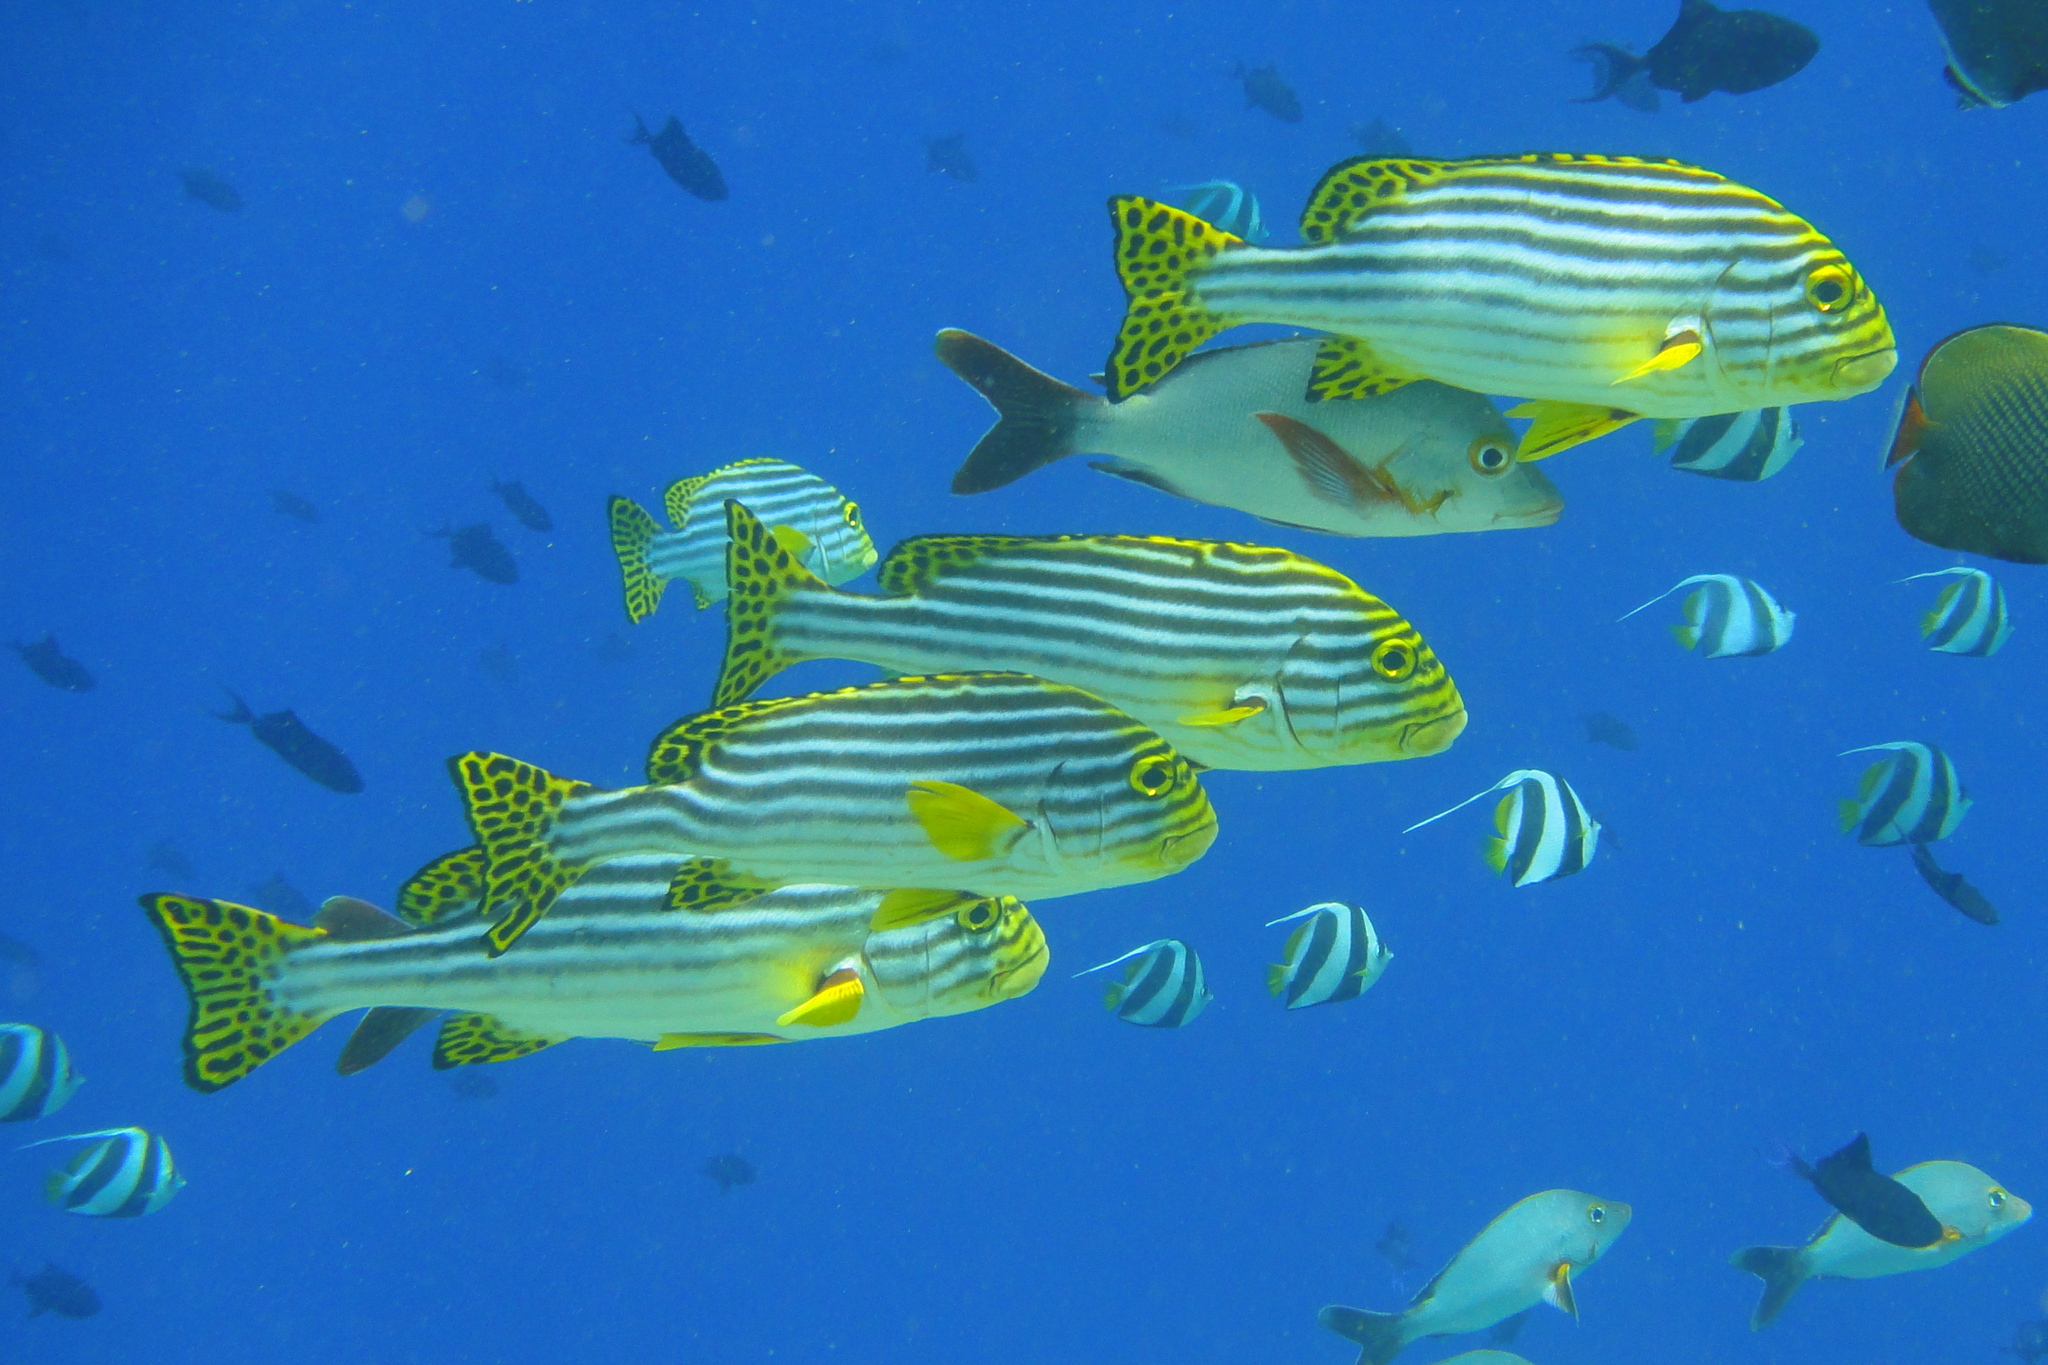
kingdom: Animalia
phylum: Chordata
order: Perciformes
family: Haemulidae
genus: Plectorhinchus
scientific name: Plectorhinchus vittatus
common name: Oriental sweetlips
